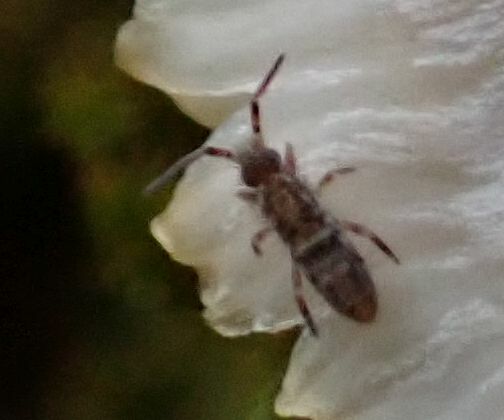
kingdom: Animalia
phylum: Arthropoda
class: Collembola
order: Entomobryomorpha
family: Orchesellidae
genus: Orchesella
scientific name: Orchesella cincta
